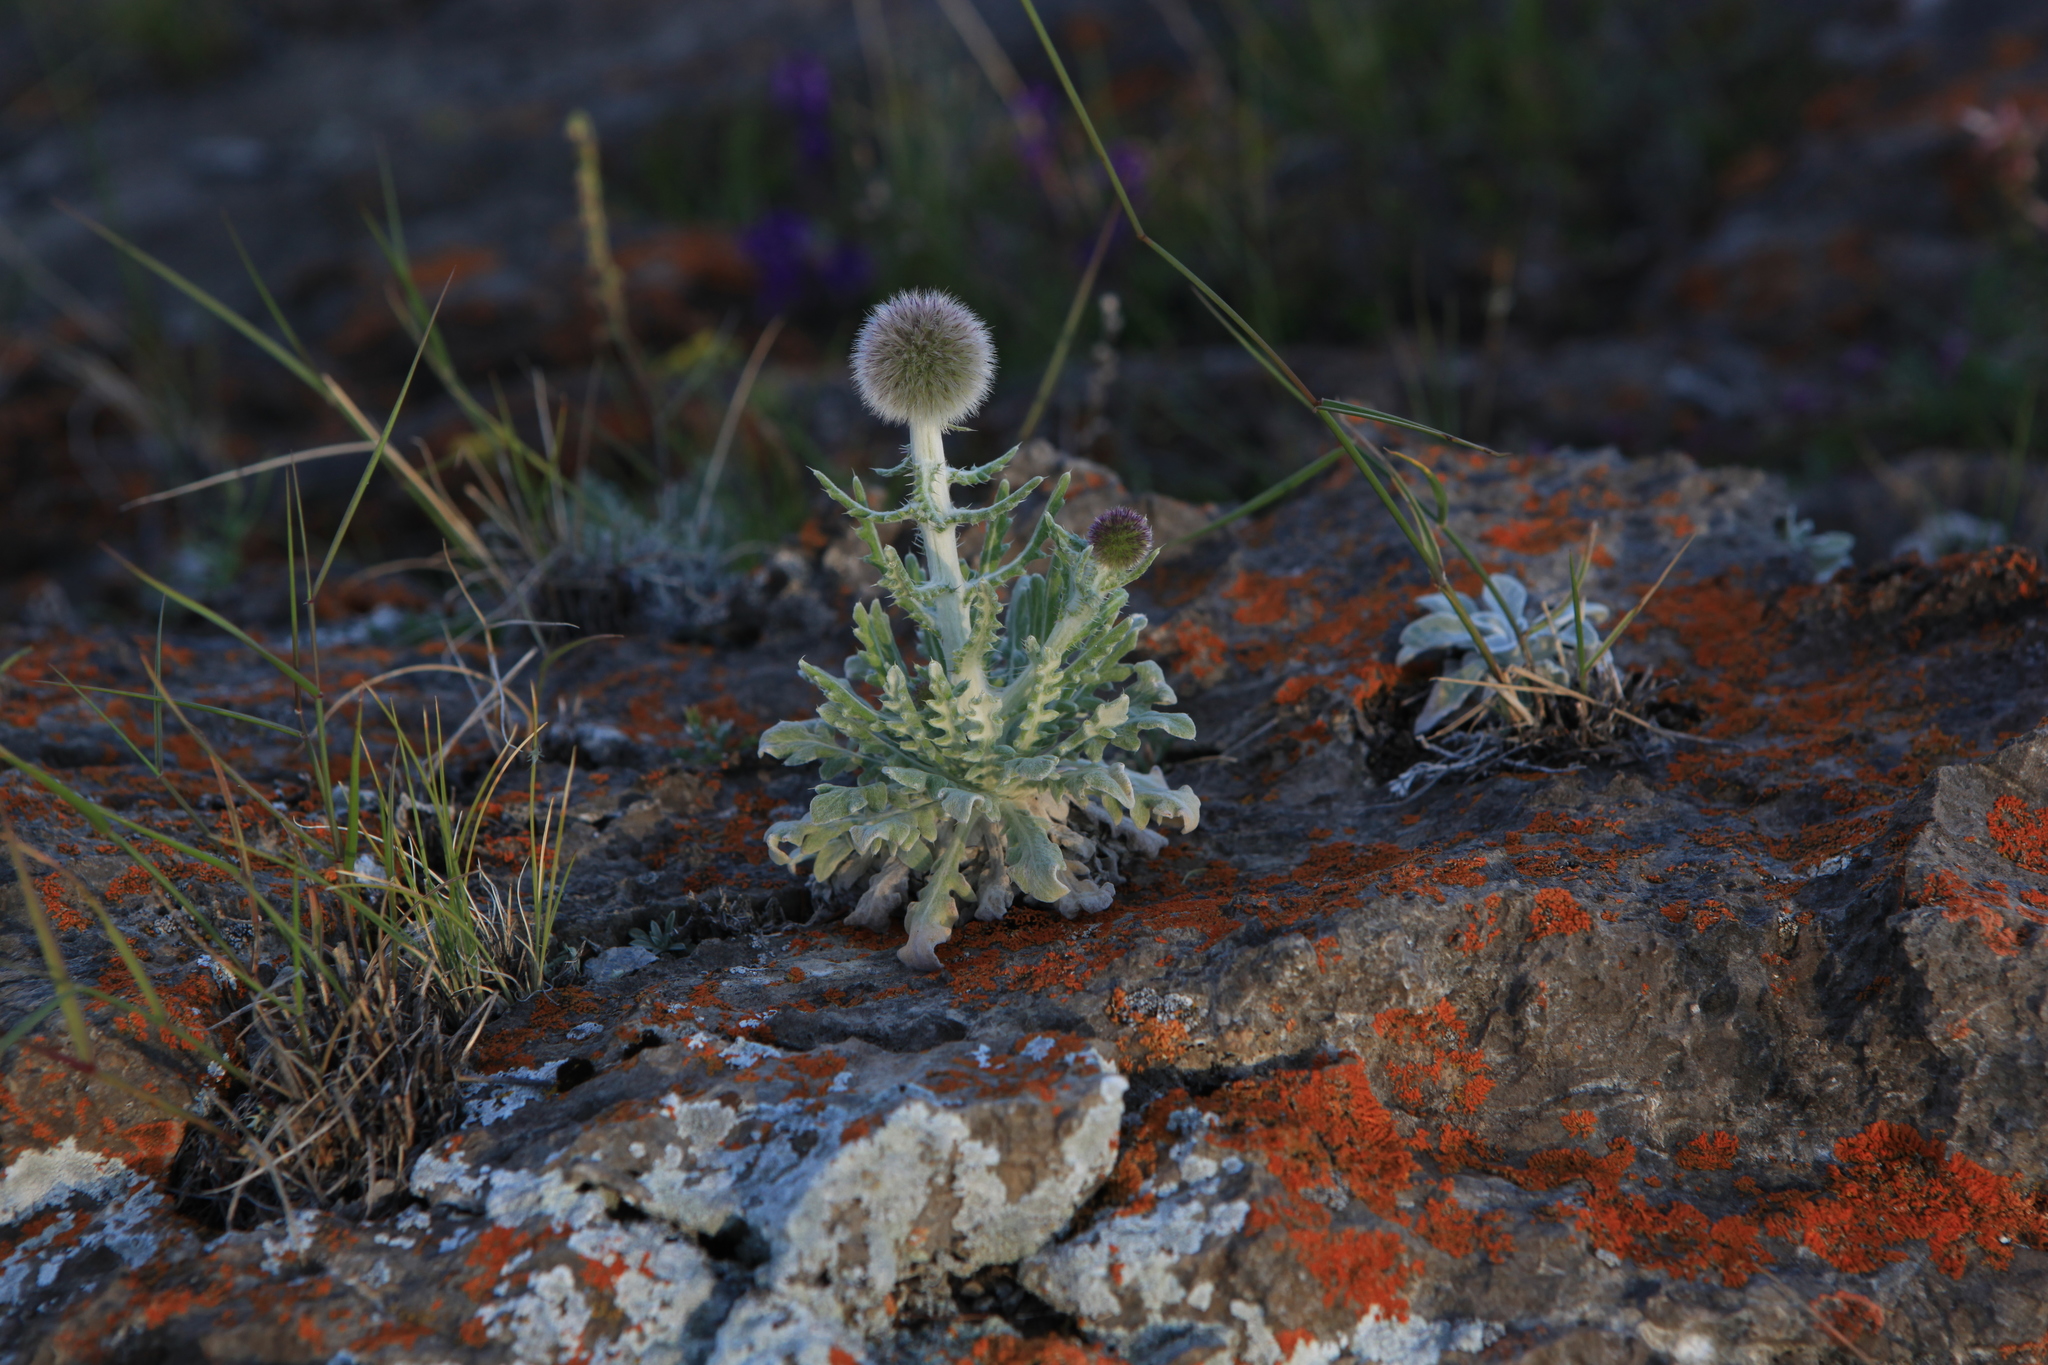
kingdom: Plantae
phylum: Tracheophyta
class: Magnoliopsida
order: Asterales
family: Asteraceae
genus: Echinops
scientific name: Echinops humilis
